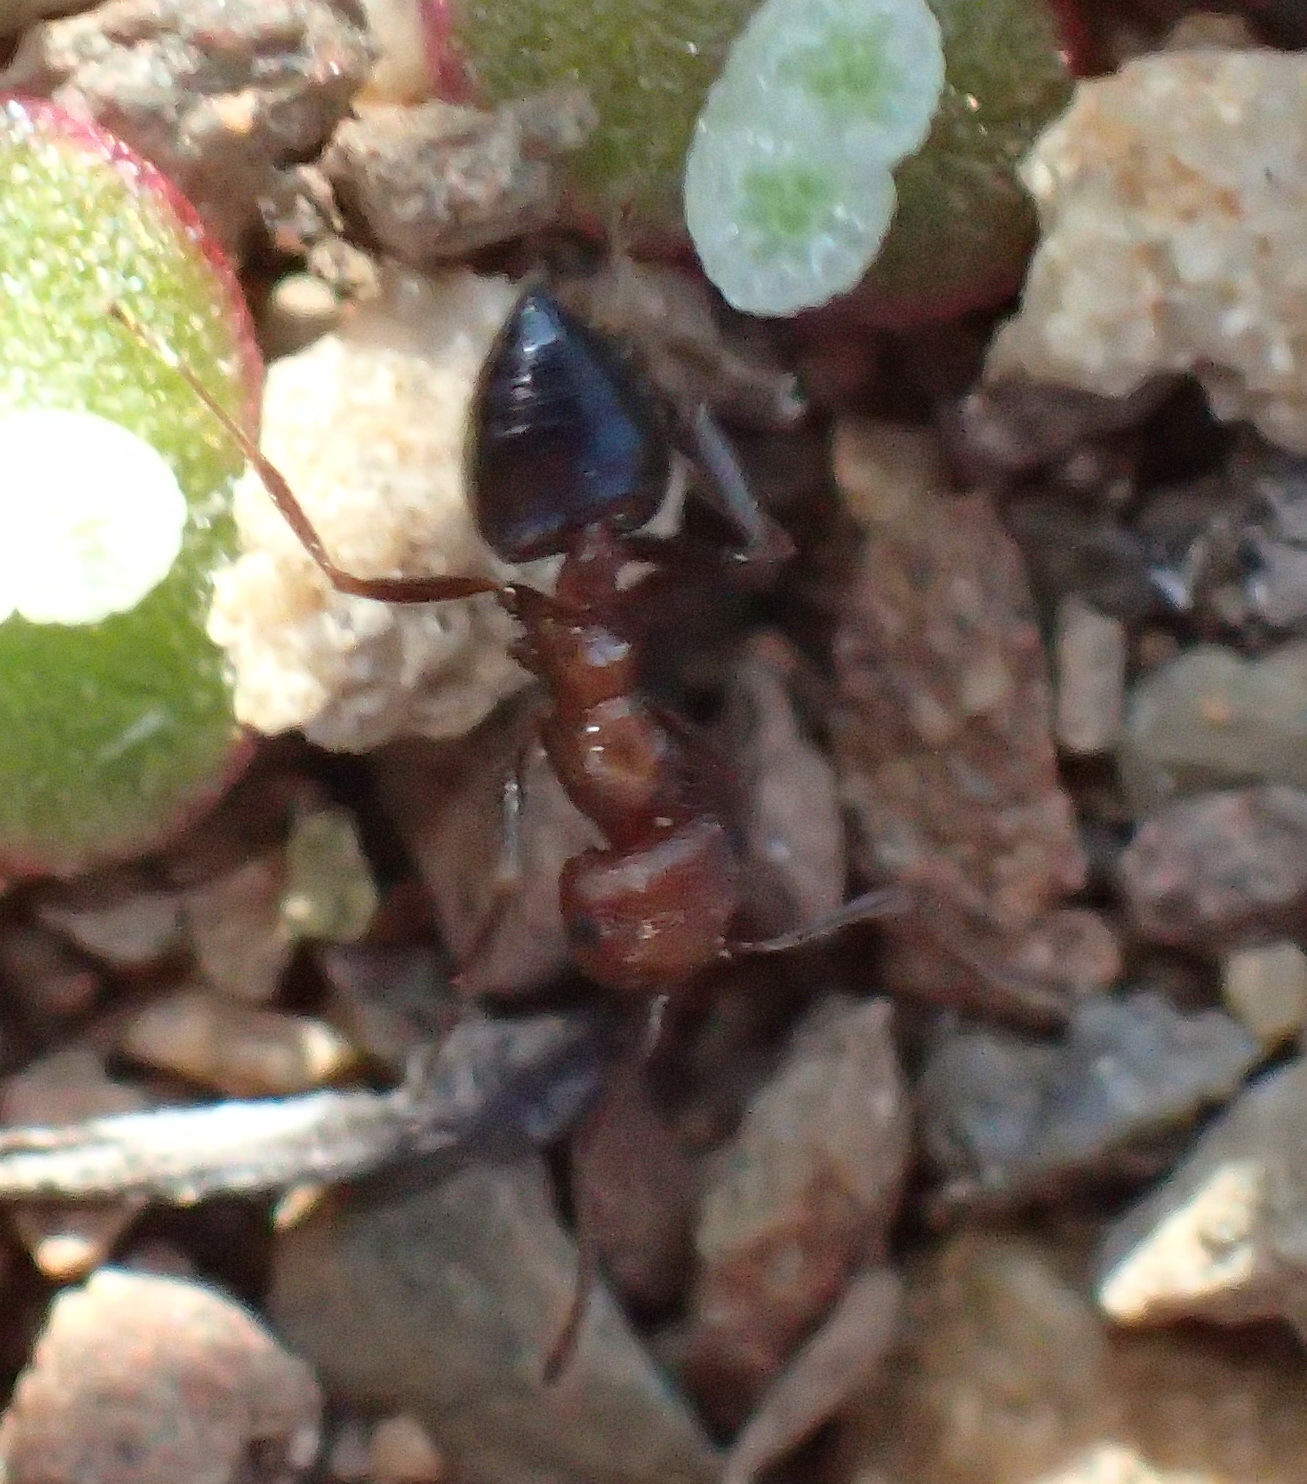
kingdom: Animalia
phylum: Arthropoda
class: Insecta
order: Hymenoptera
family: Formicidae
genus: Crematogaster
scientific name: Crematogaster melanogaster
